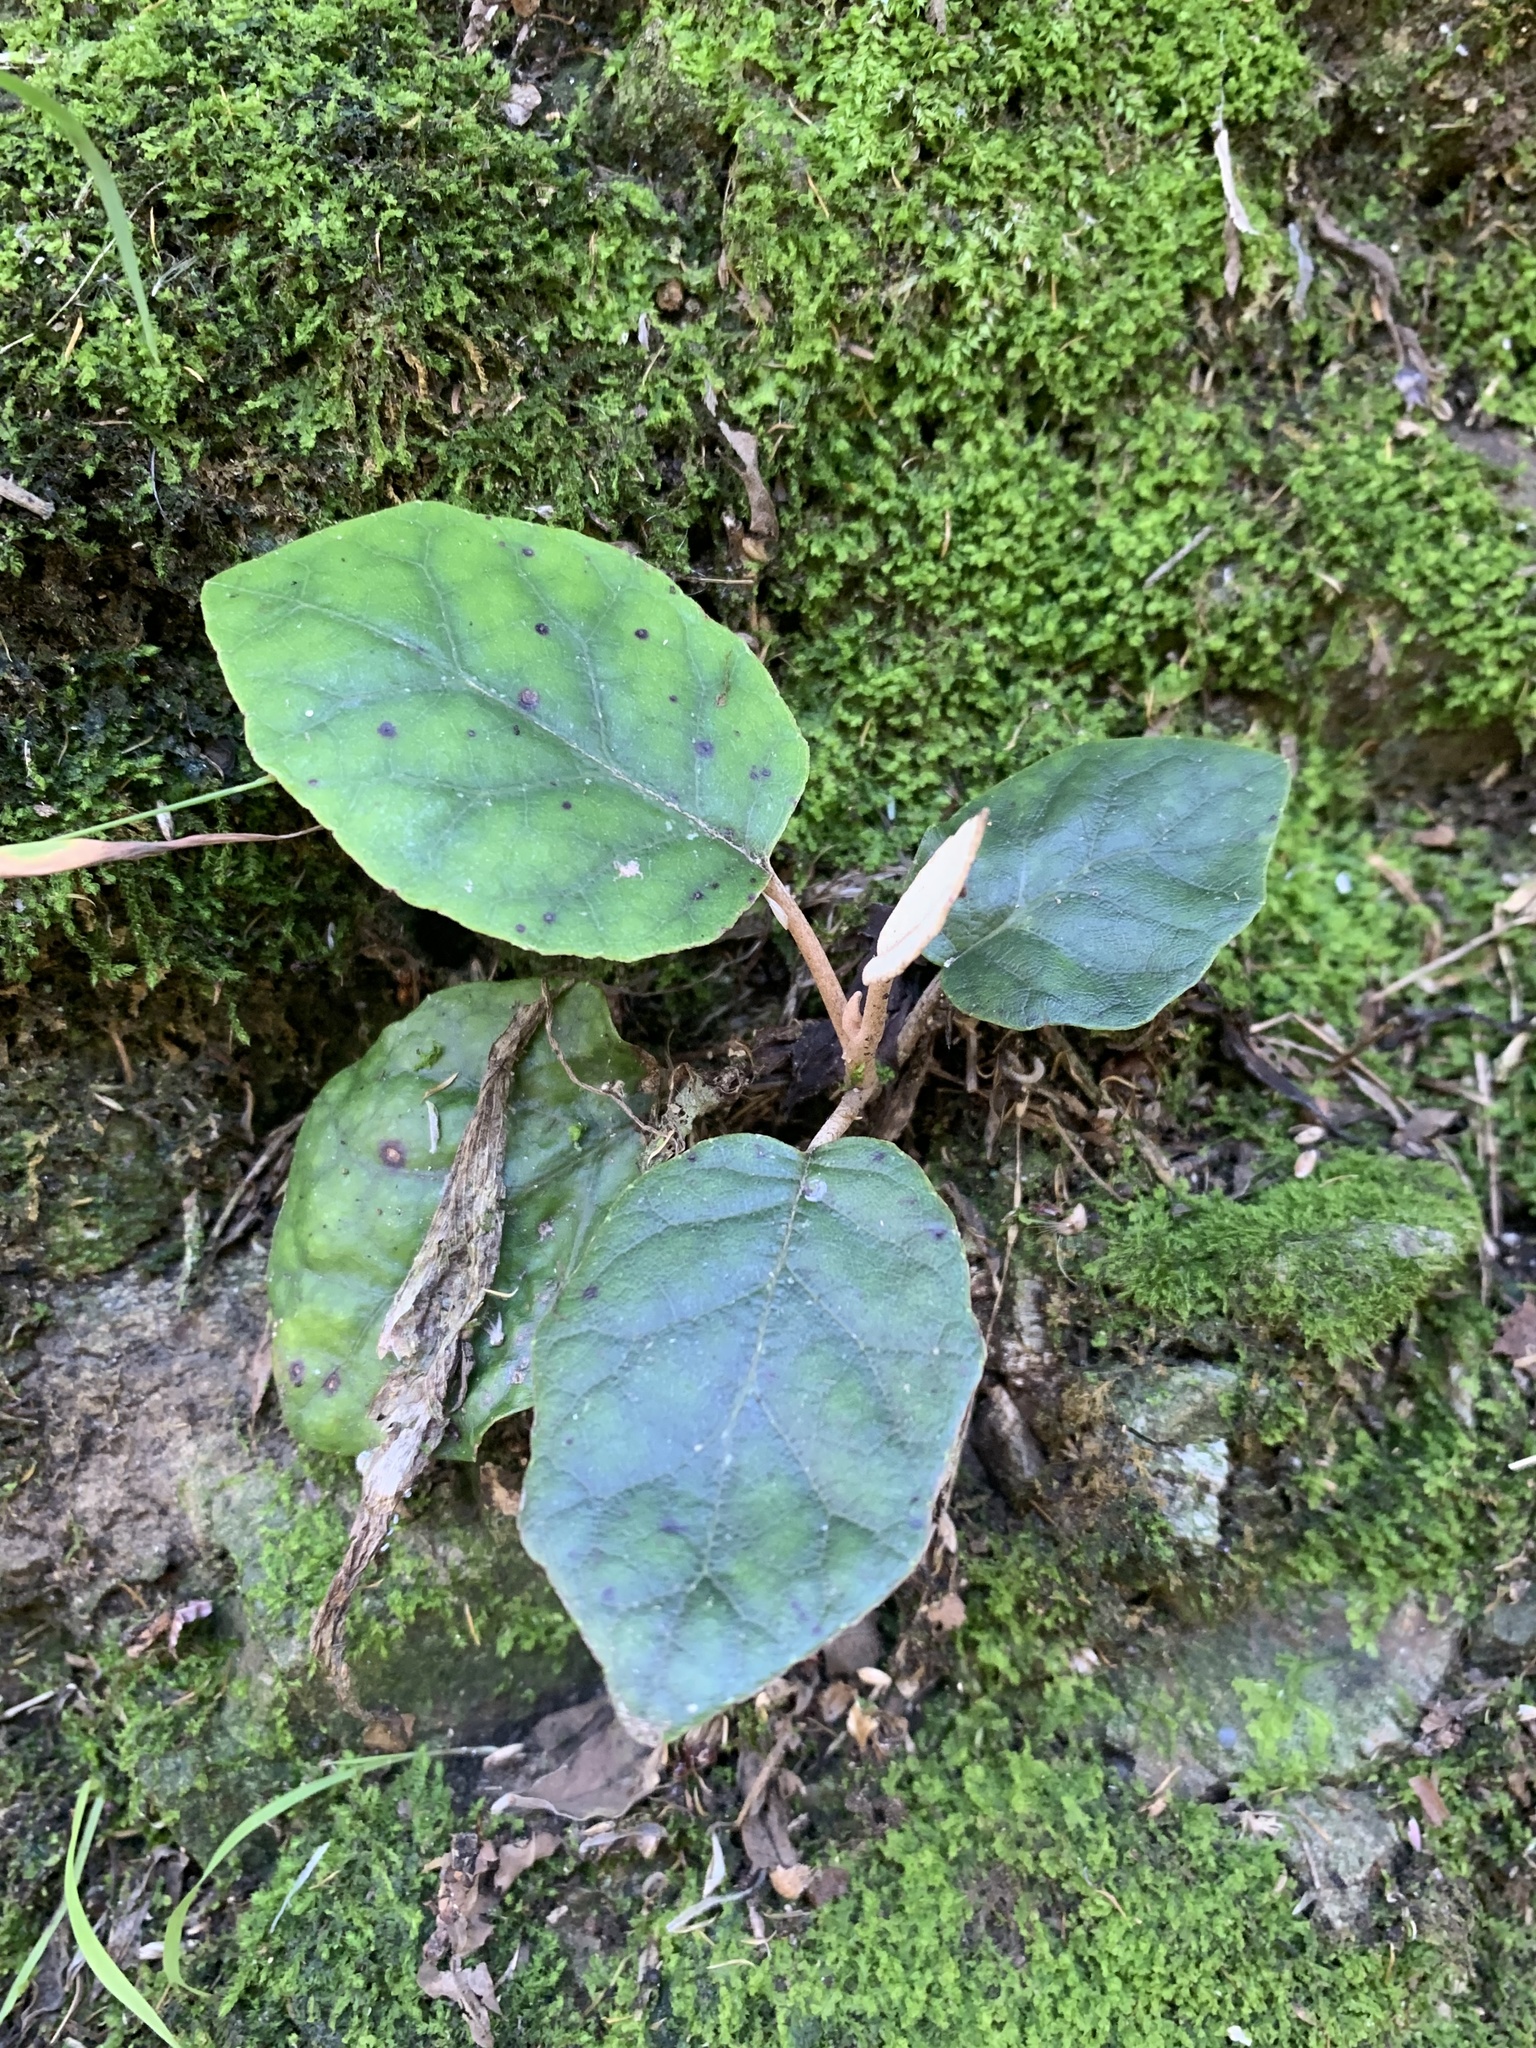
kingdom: Plantae
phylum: Tracheophyta
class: Magnoliopsida
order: Asterales
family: Asteraceae
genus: Brachyglottis
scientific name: Brachyglottis repanda
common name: Hedge ragwort
